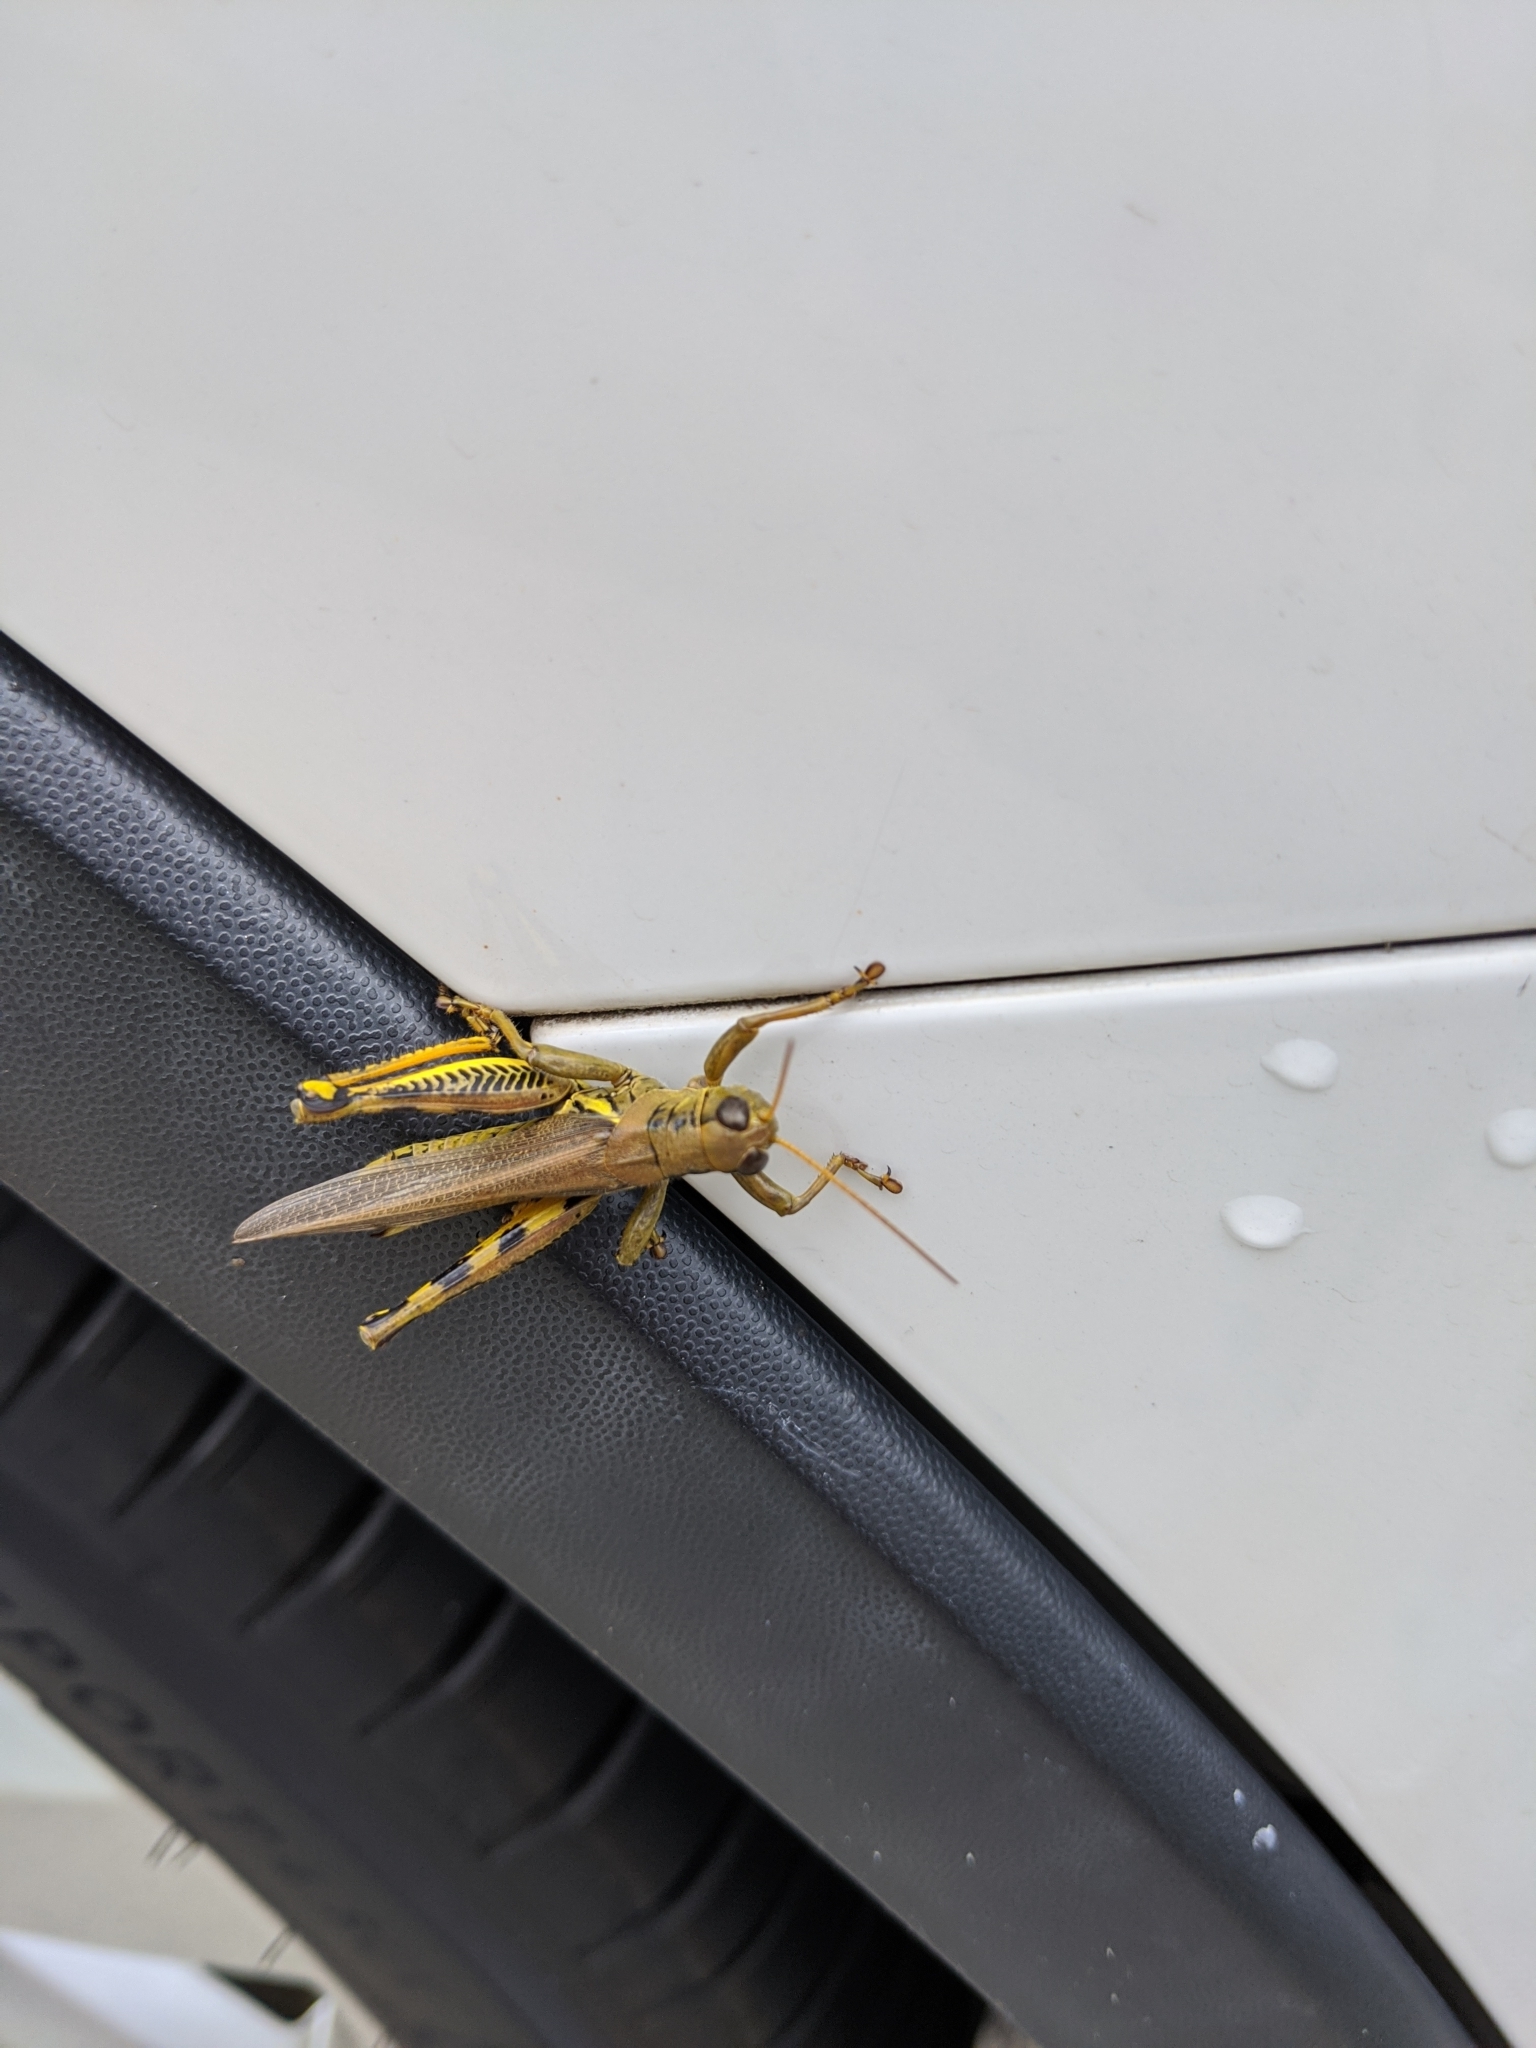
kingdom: Animalia
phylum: Arthropoda
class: Insecta
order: Orthoptera
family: Acrididae
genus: Melanoplus
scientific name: Melanoplus differentialis
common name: Differential grasshopper
